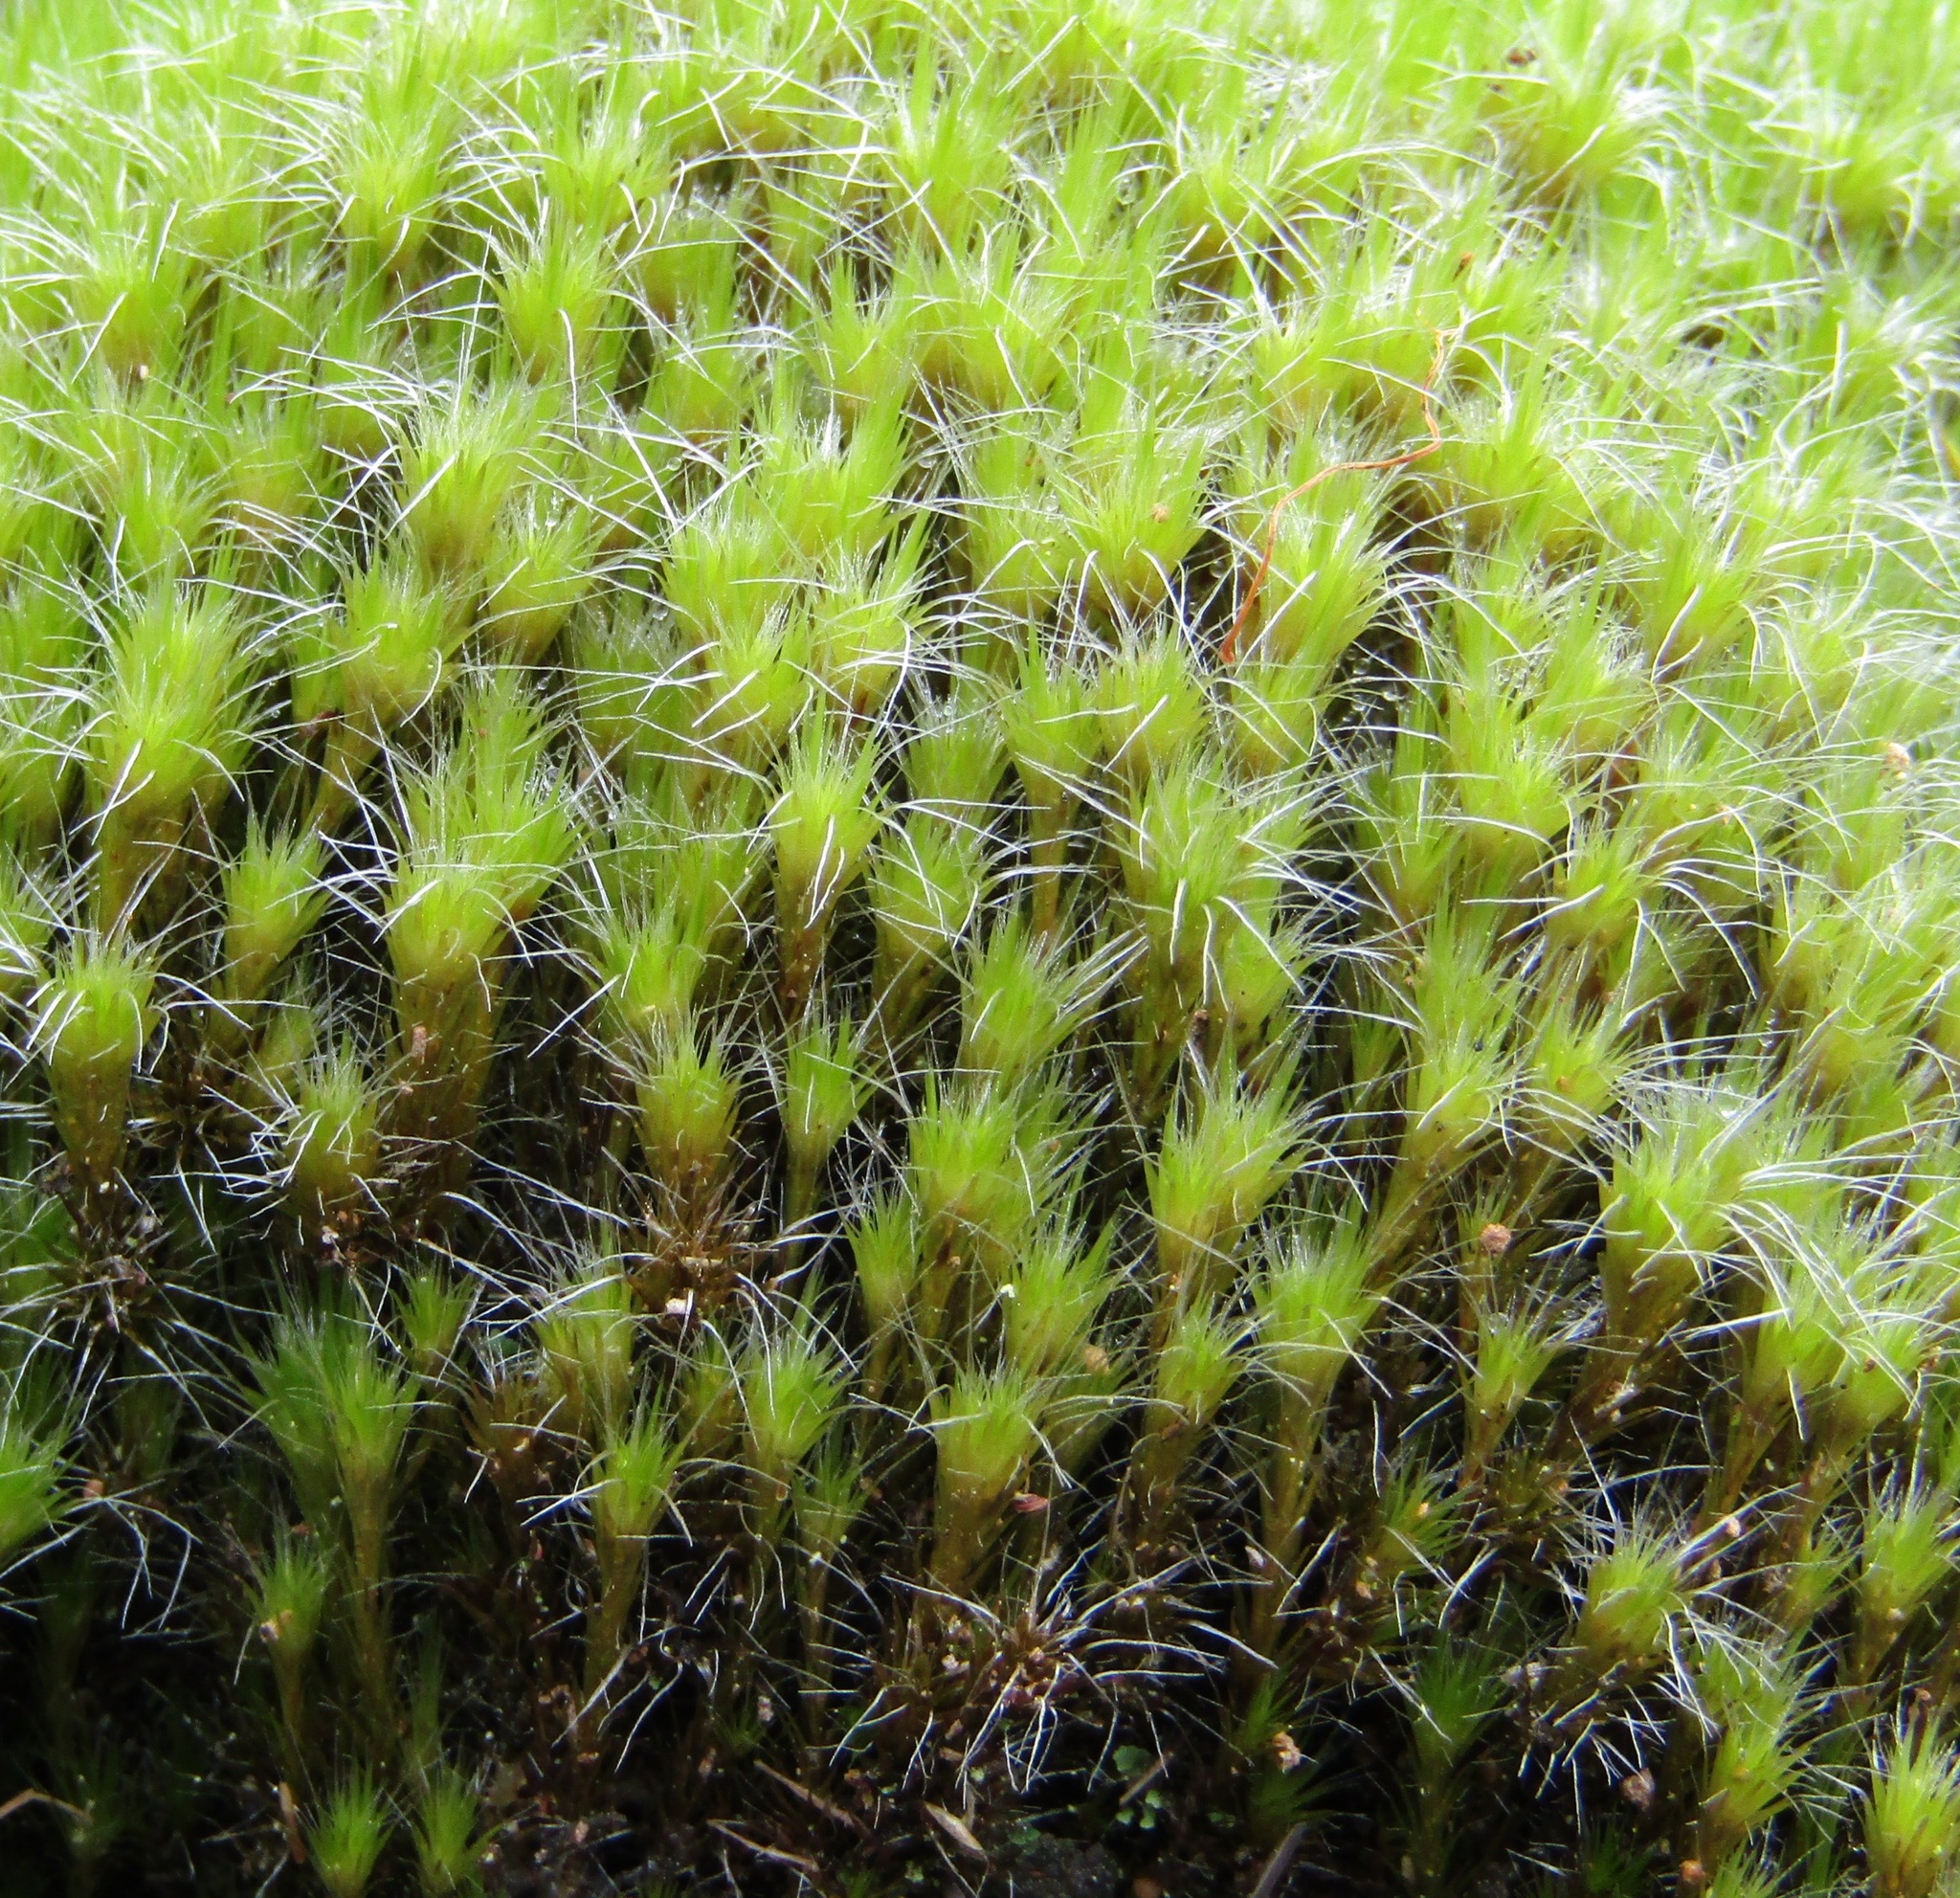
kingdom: Plantae
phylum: Bryophyta
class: Bryopsida
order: Dicranales
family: Leucobryaceae
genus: Campylopus
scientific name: Campylopus introflexus
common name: Heath star moss
